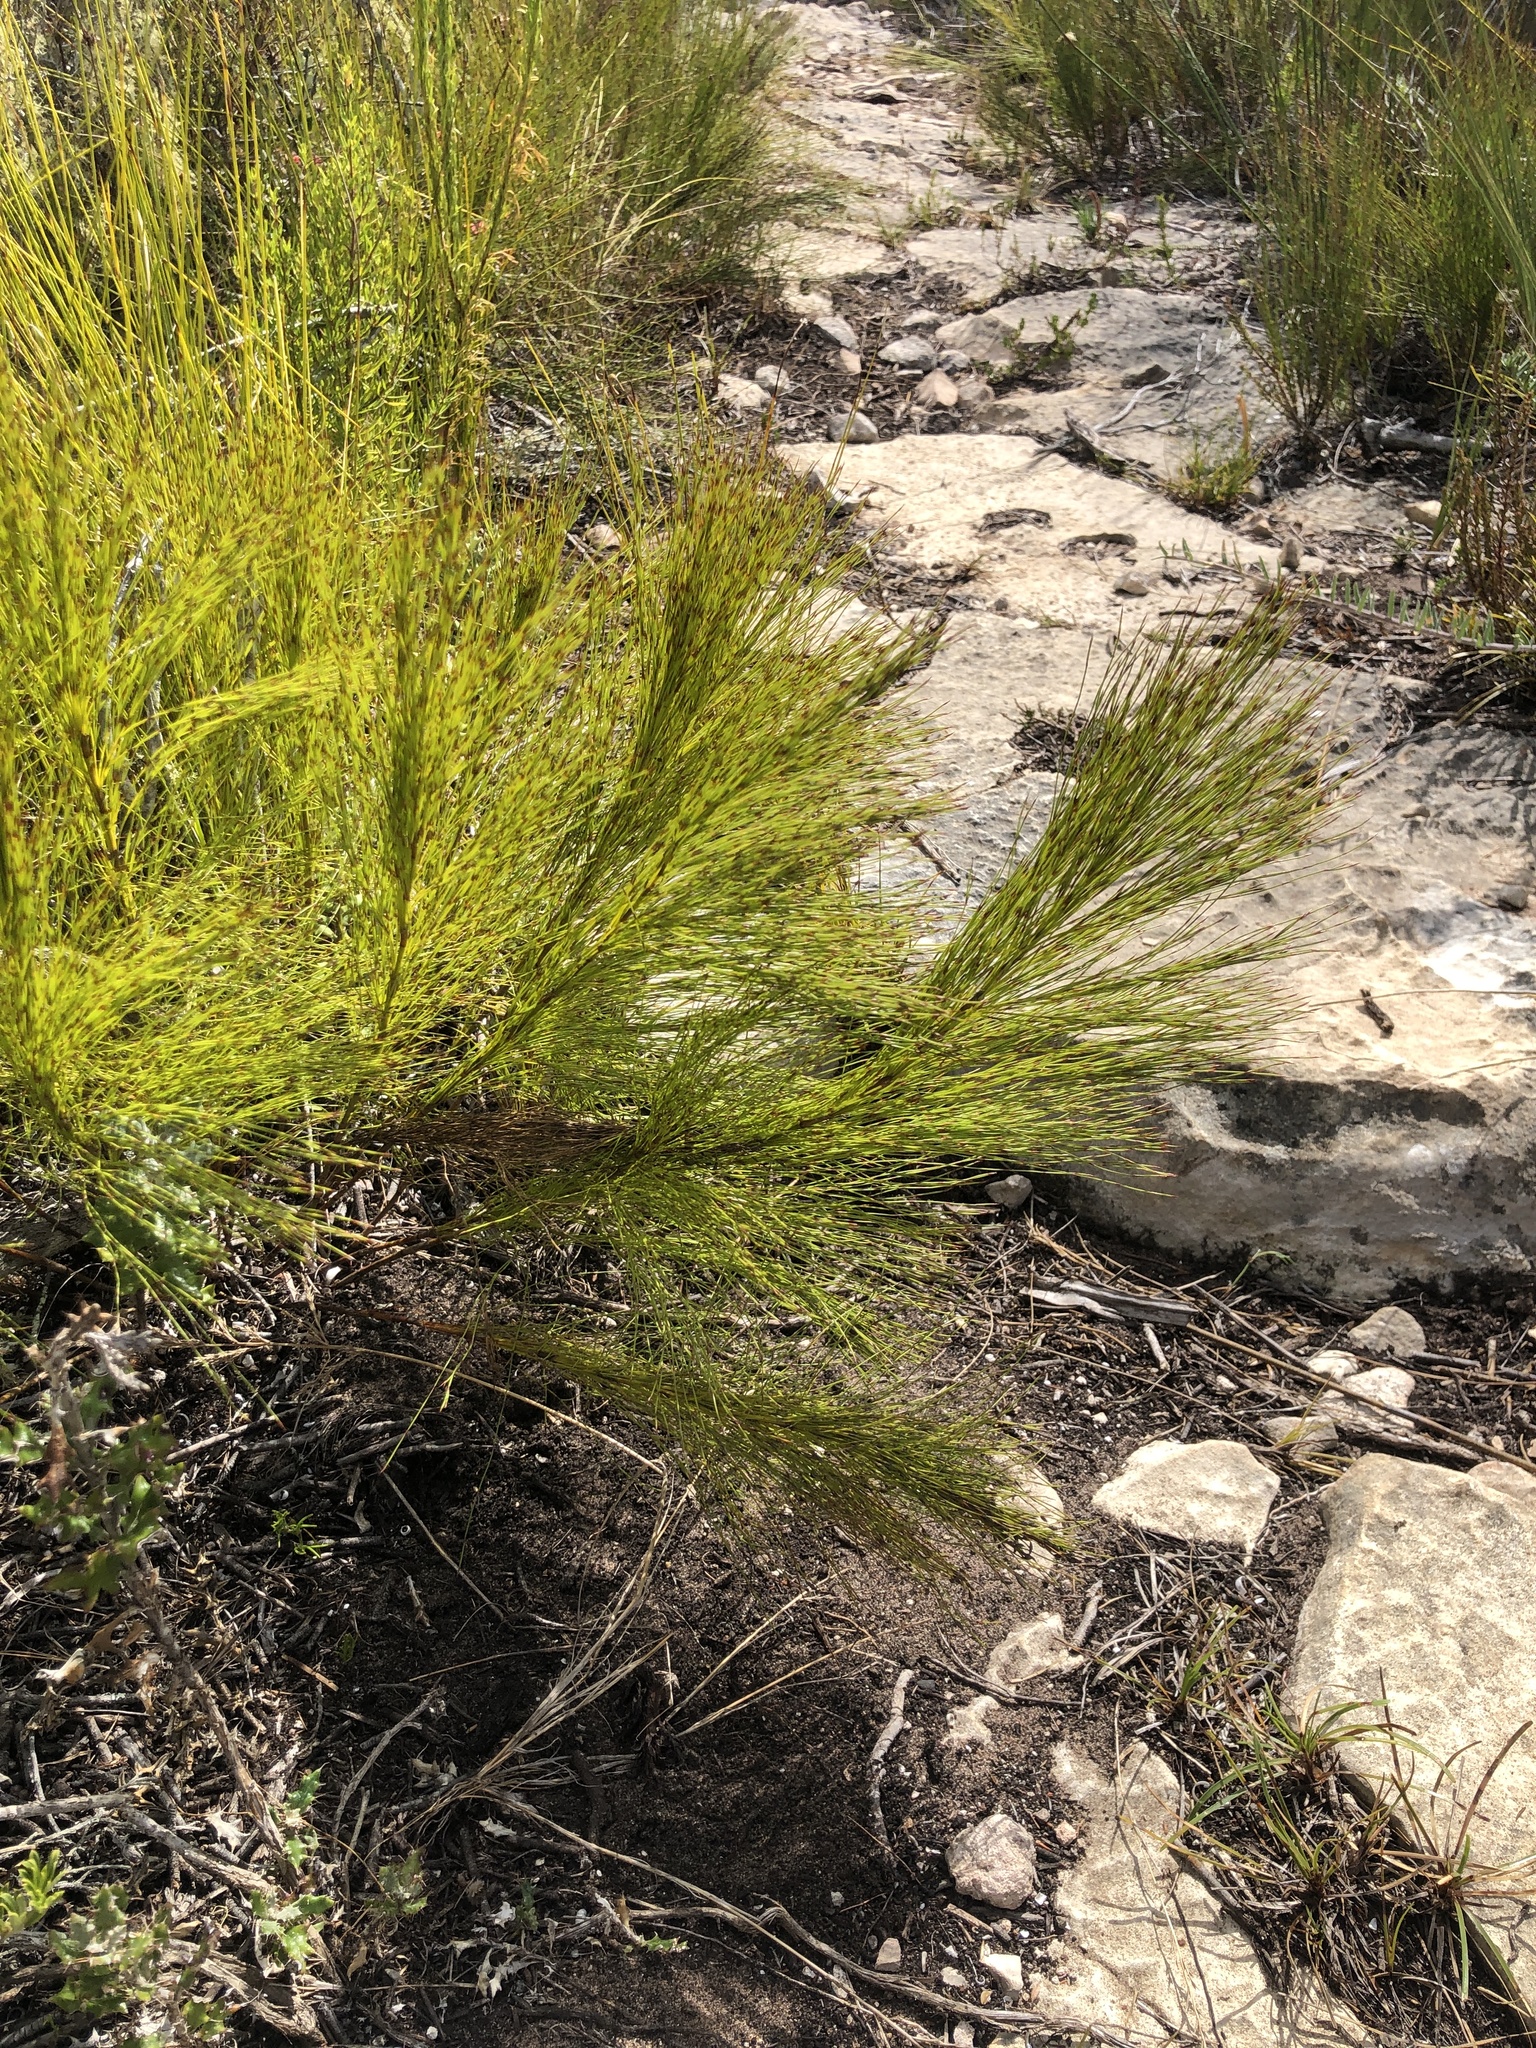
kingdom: Plantae
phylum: Tracheophyta
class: Liliopsida
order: Poales
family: Restionaceae
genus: Restio
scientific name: Restio leptoclados
